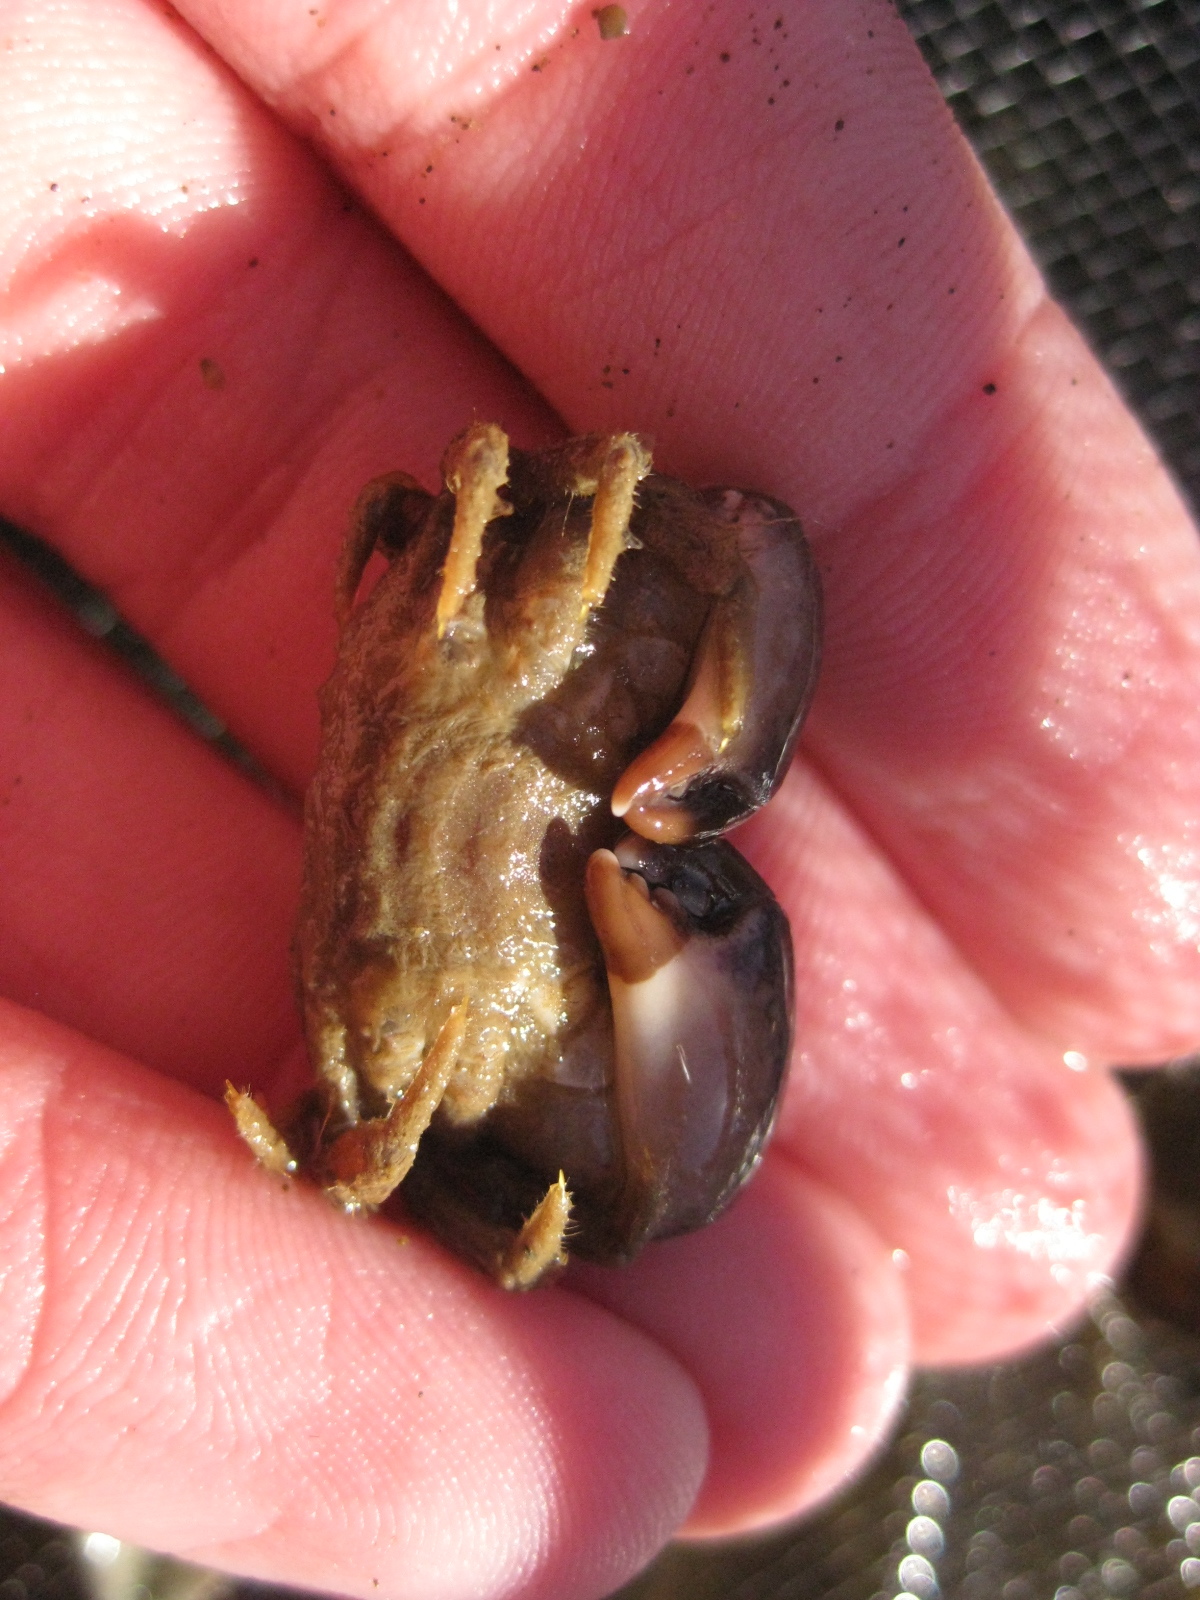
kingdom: Animalia
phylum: Arthropoda
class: Malacostraca
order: Decapoda
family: Pilumnidae
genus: Pilumnopeus
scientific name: Pilumnopeus serratifrons
